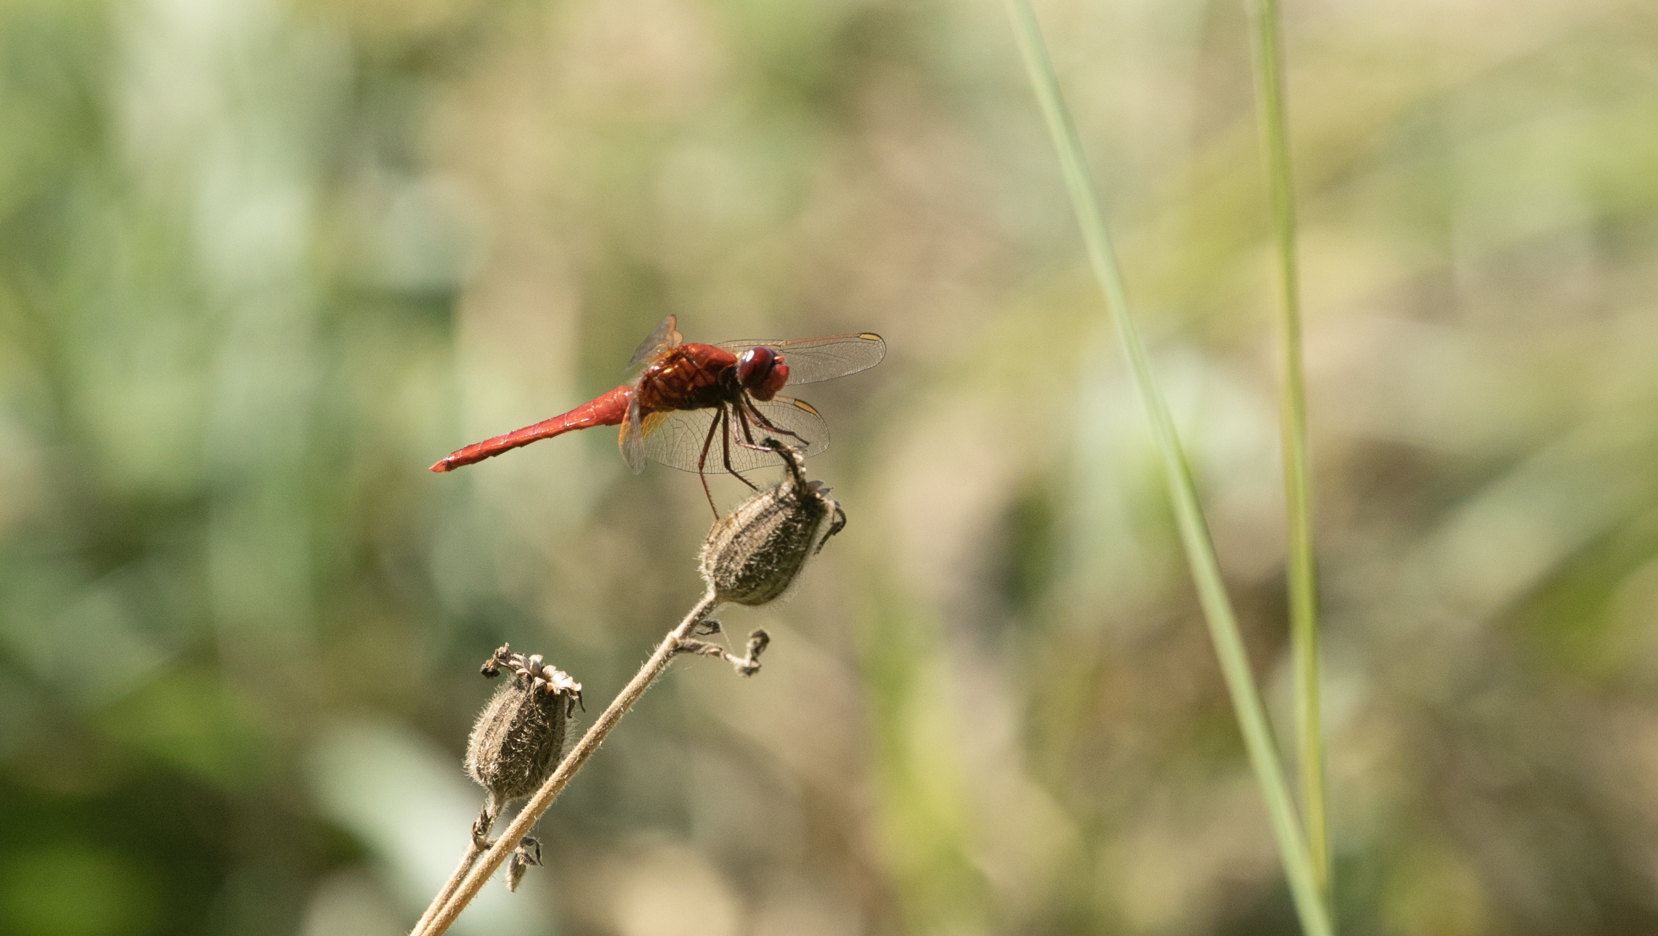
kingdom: Animalia
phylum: Arthropoda
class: Insecta
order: Odonata
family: Libellulidae
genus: Crocothemis
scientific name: Crocothemis erythraea
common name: Scarlet dragonfly
